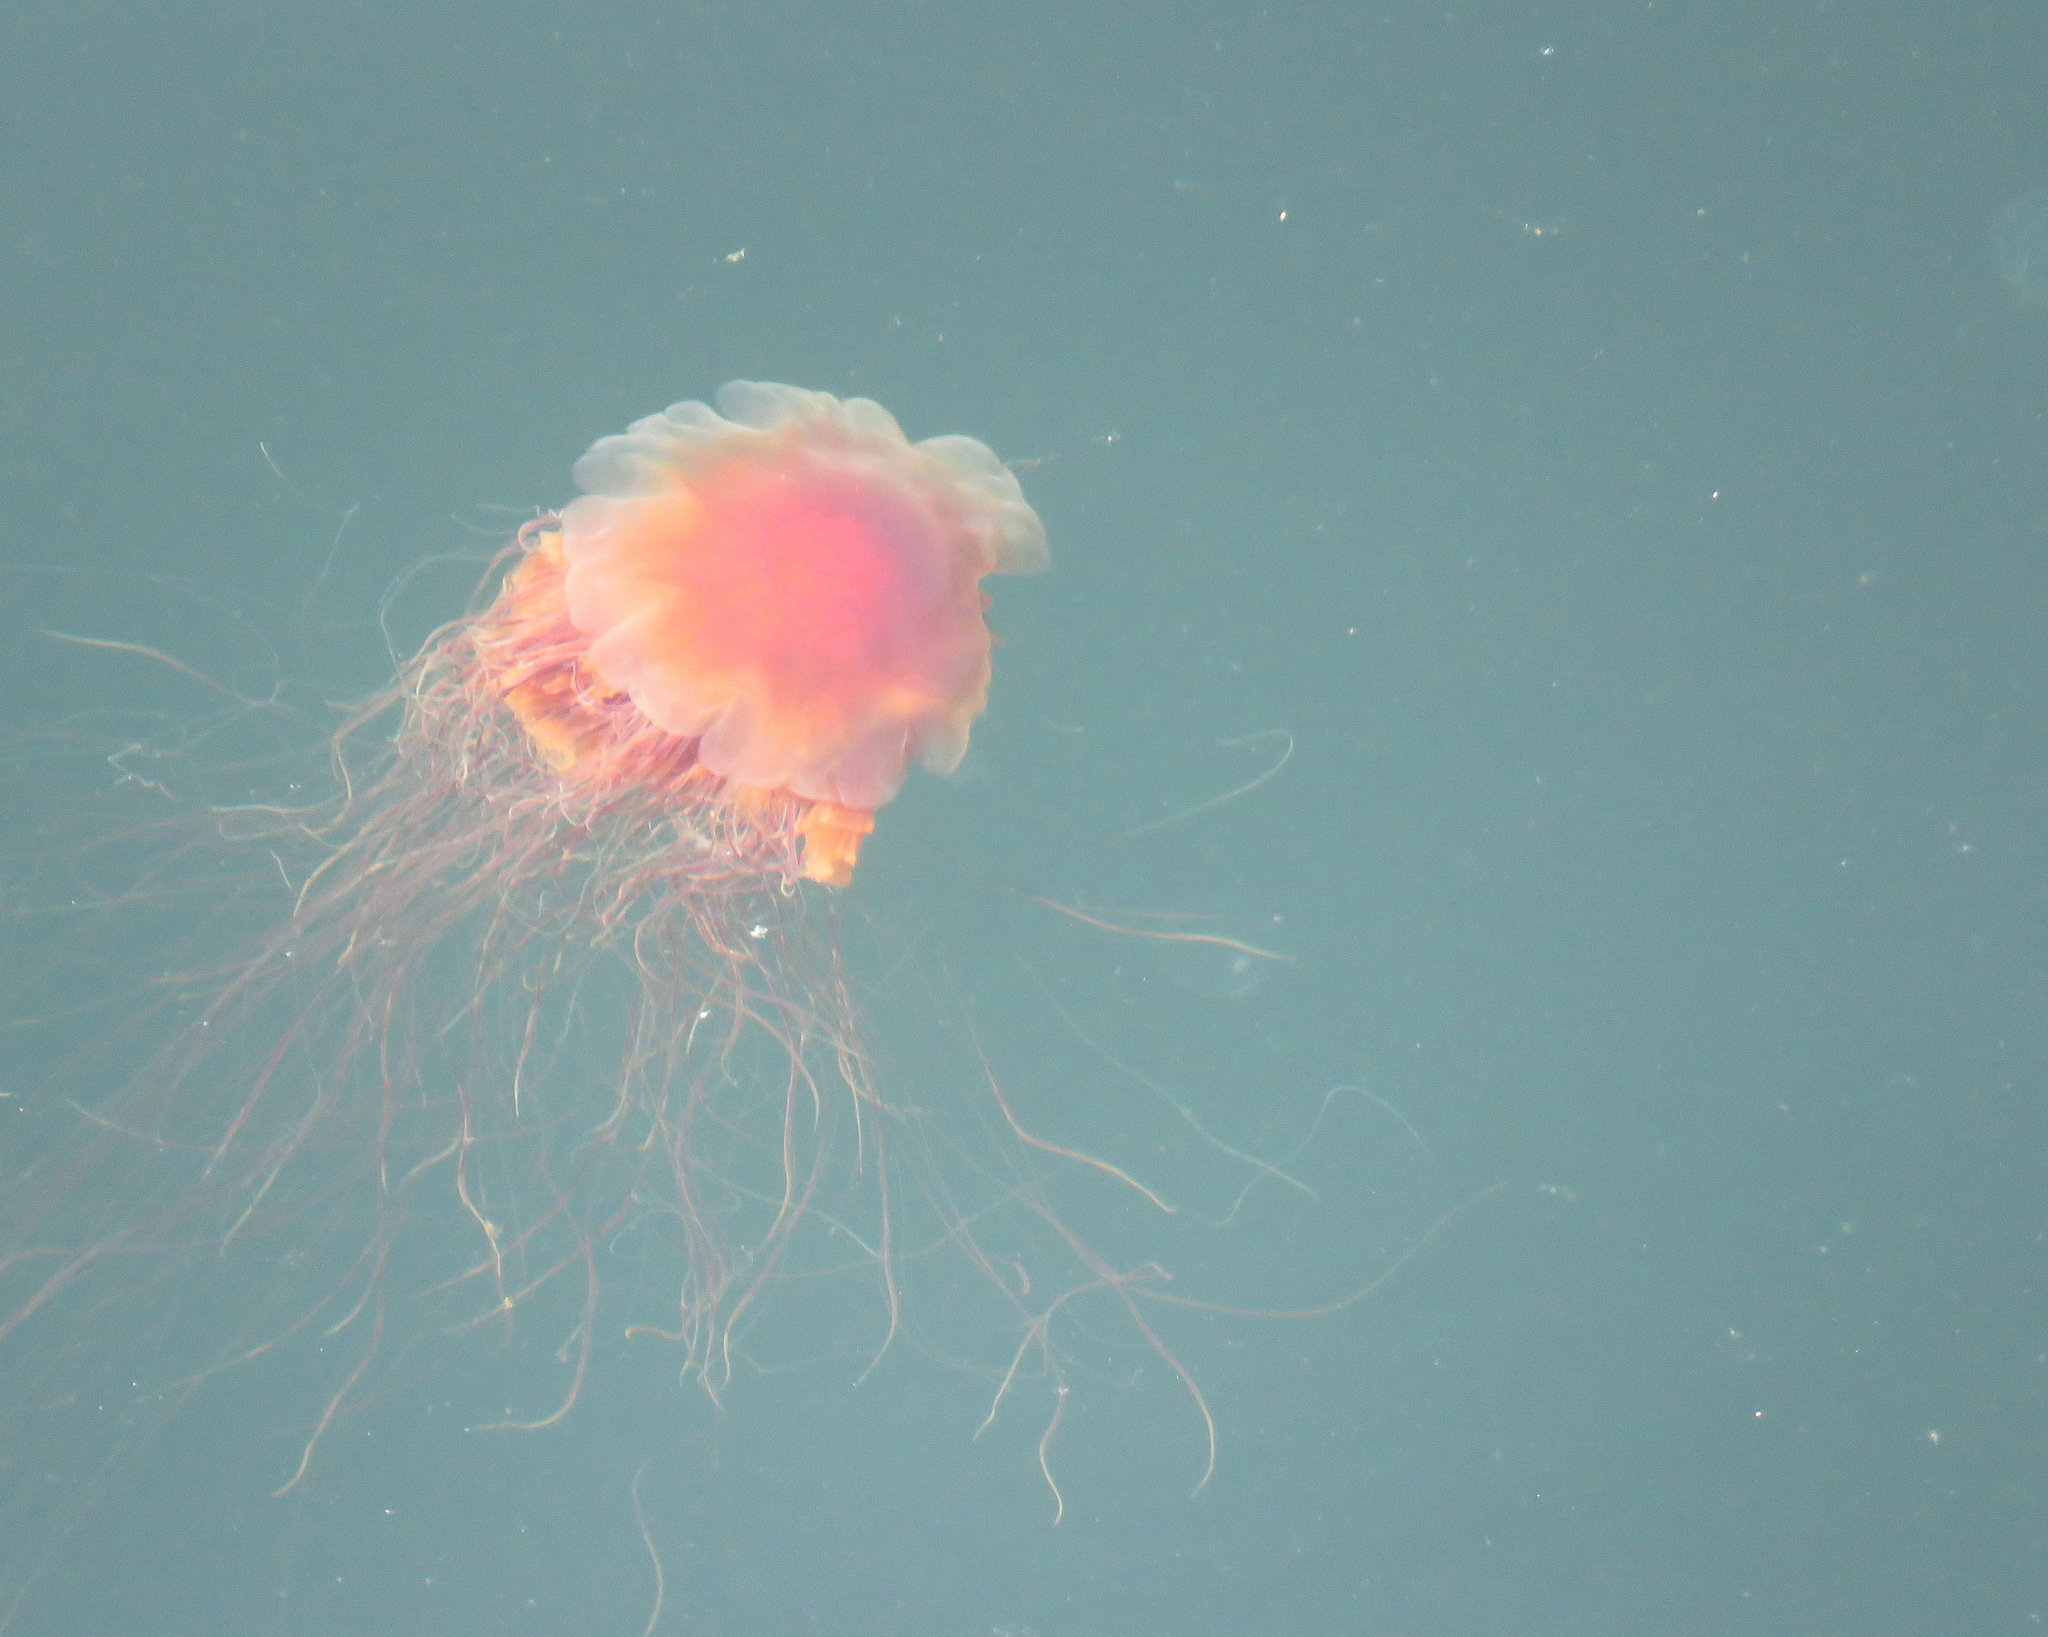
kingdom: Animalia
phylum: Cnidaria
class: Scyphozoa
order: Semaeostomeae
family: Cyaneidae
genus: Cyanea
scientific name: Cyanea ferruginea
